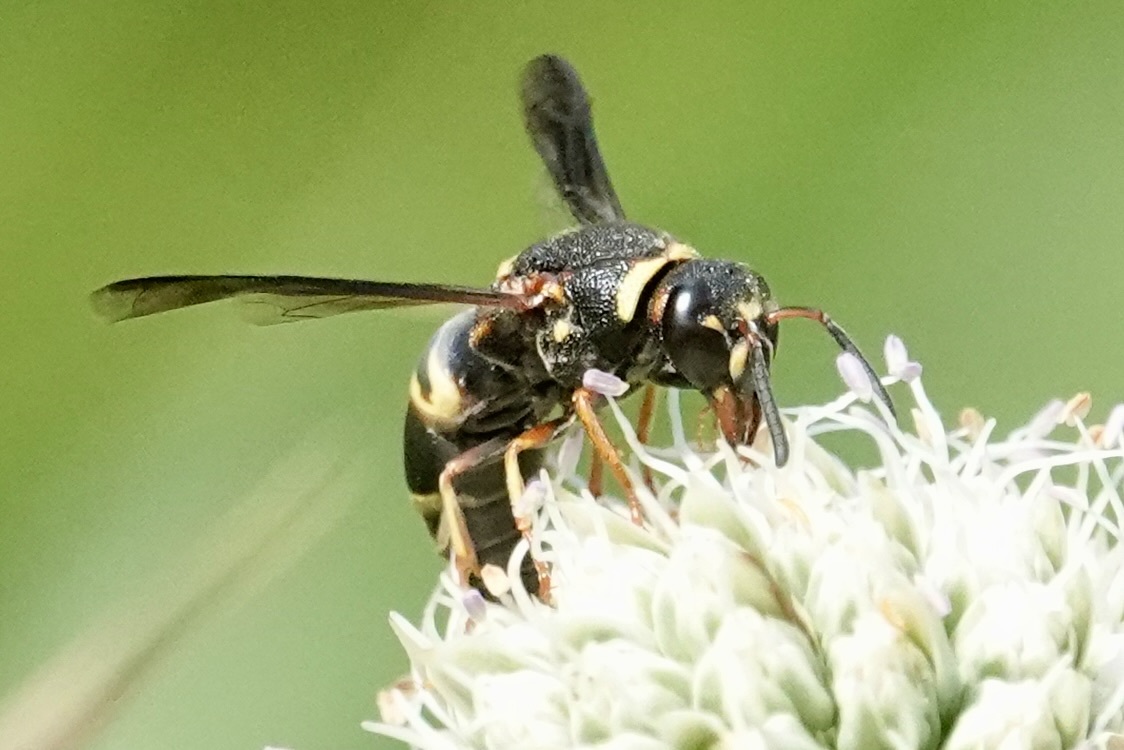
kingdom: Animalia
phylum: Arthropoda
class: Insecta
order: Hymenoptera
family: Eumenidae
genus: Euodynerus
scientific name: Euodynerus hidalgo
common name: Wasp
